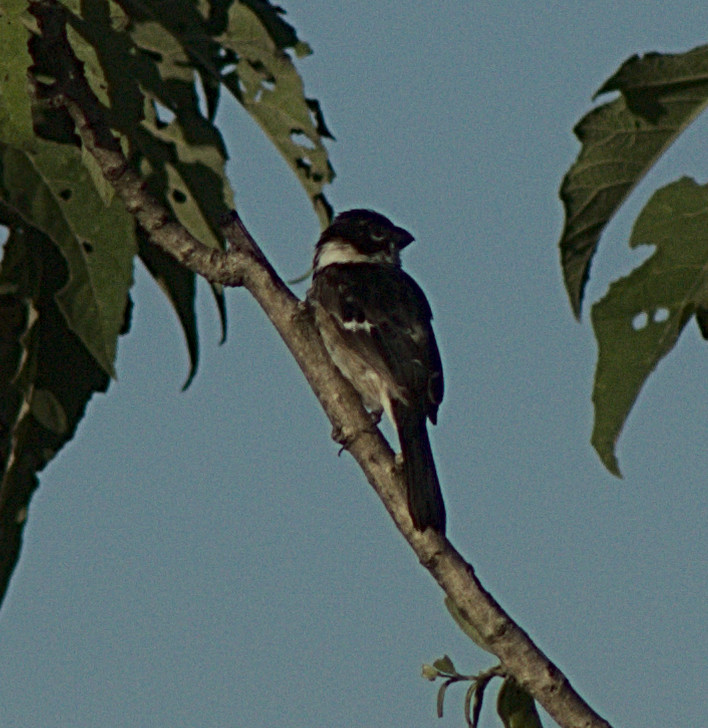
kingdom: Animalia
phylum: Chordata
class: Aves
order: Passeriformes
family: Thraupidae
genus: Sporophila
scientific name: Sporophila morelleti
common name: Morelet's seedeater
